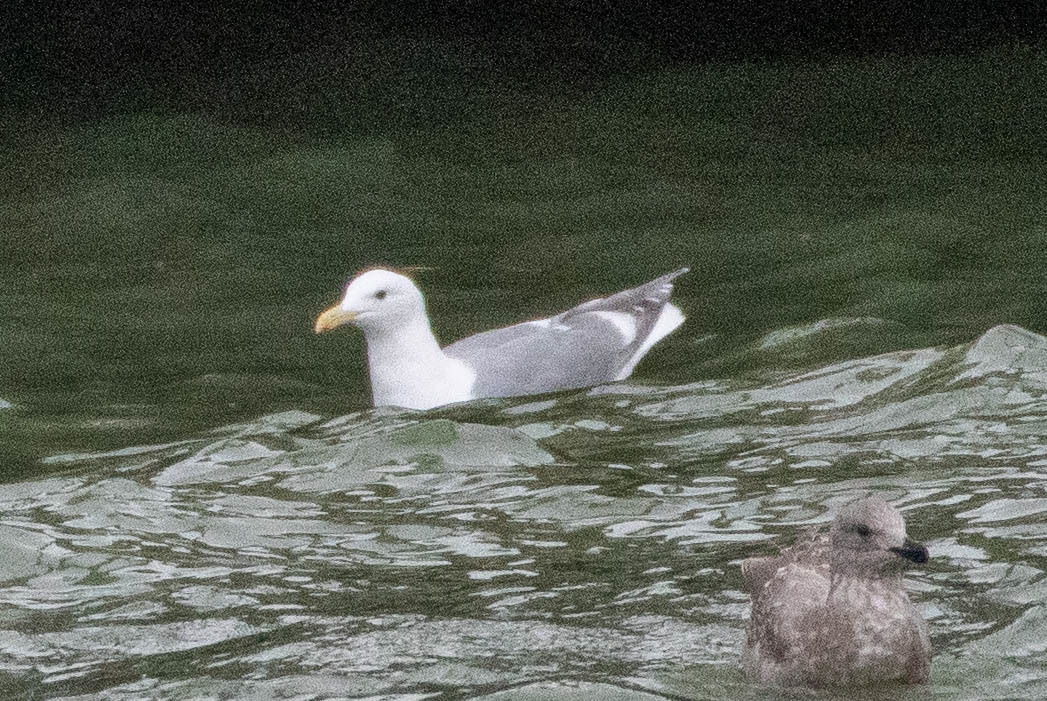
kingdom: Animalia
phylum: Chordata
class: Aves
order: Charadriiformes
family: Laridae
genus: Larus
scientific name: Larus
